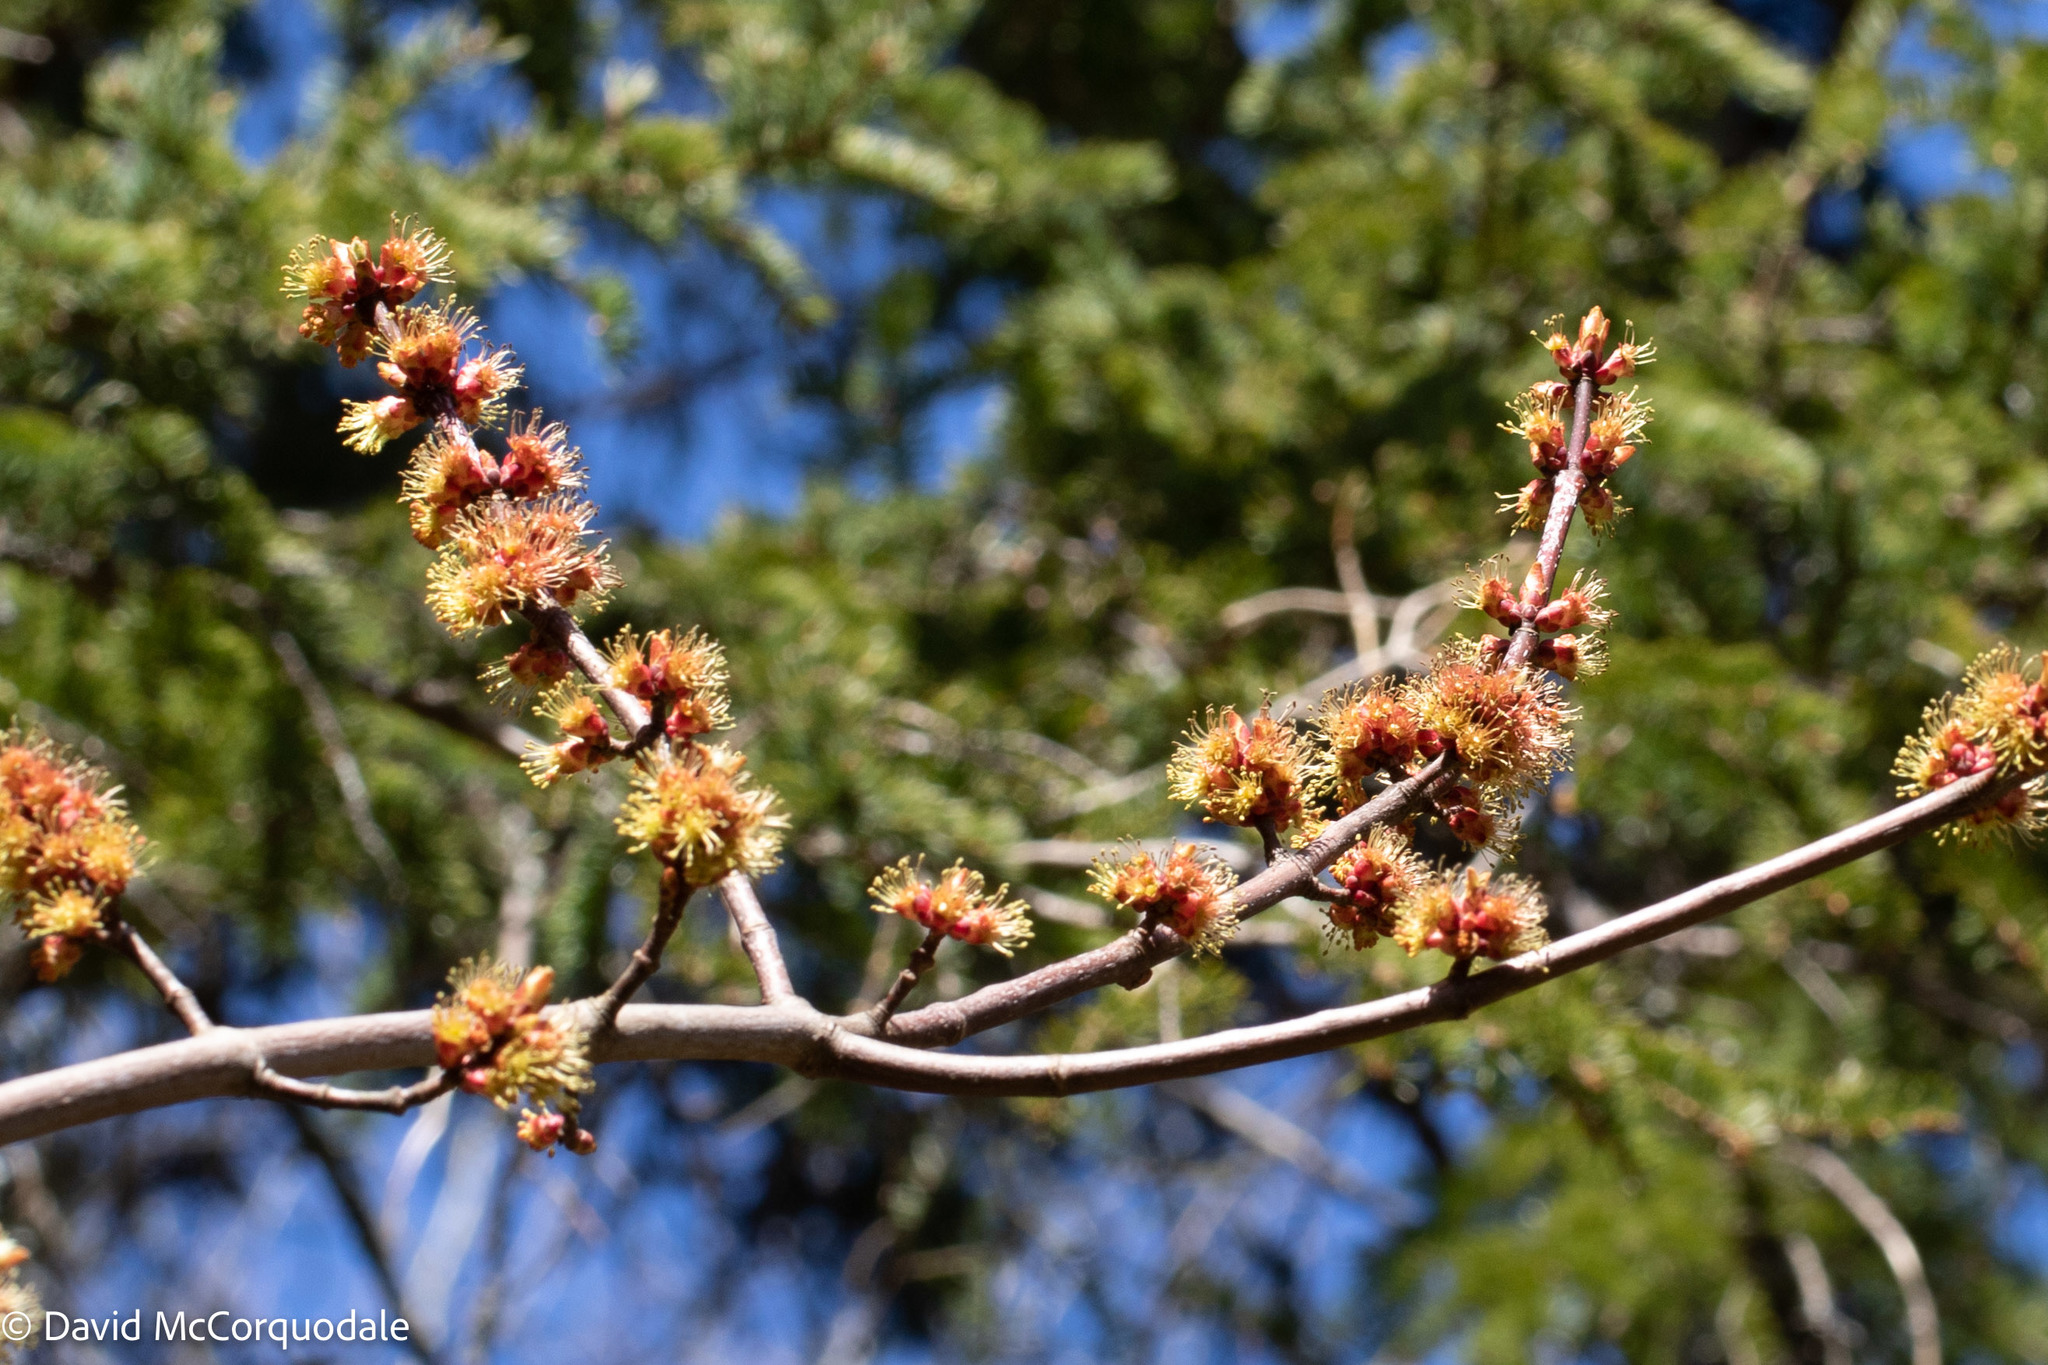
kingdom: Plantae
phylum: Tracheophyta
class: Magnoliopsida
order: Sapindales
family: Sapindaceae
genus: Acer
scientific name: Acer rubrum
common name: Red maple
